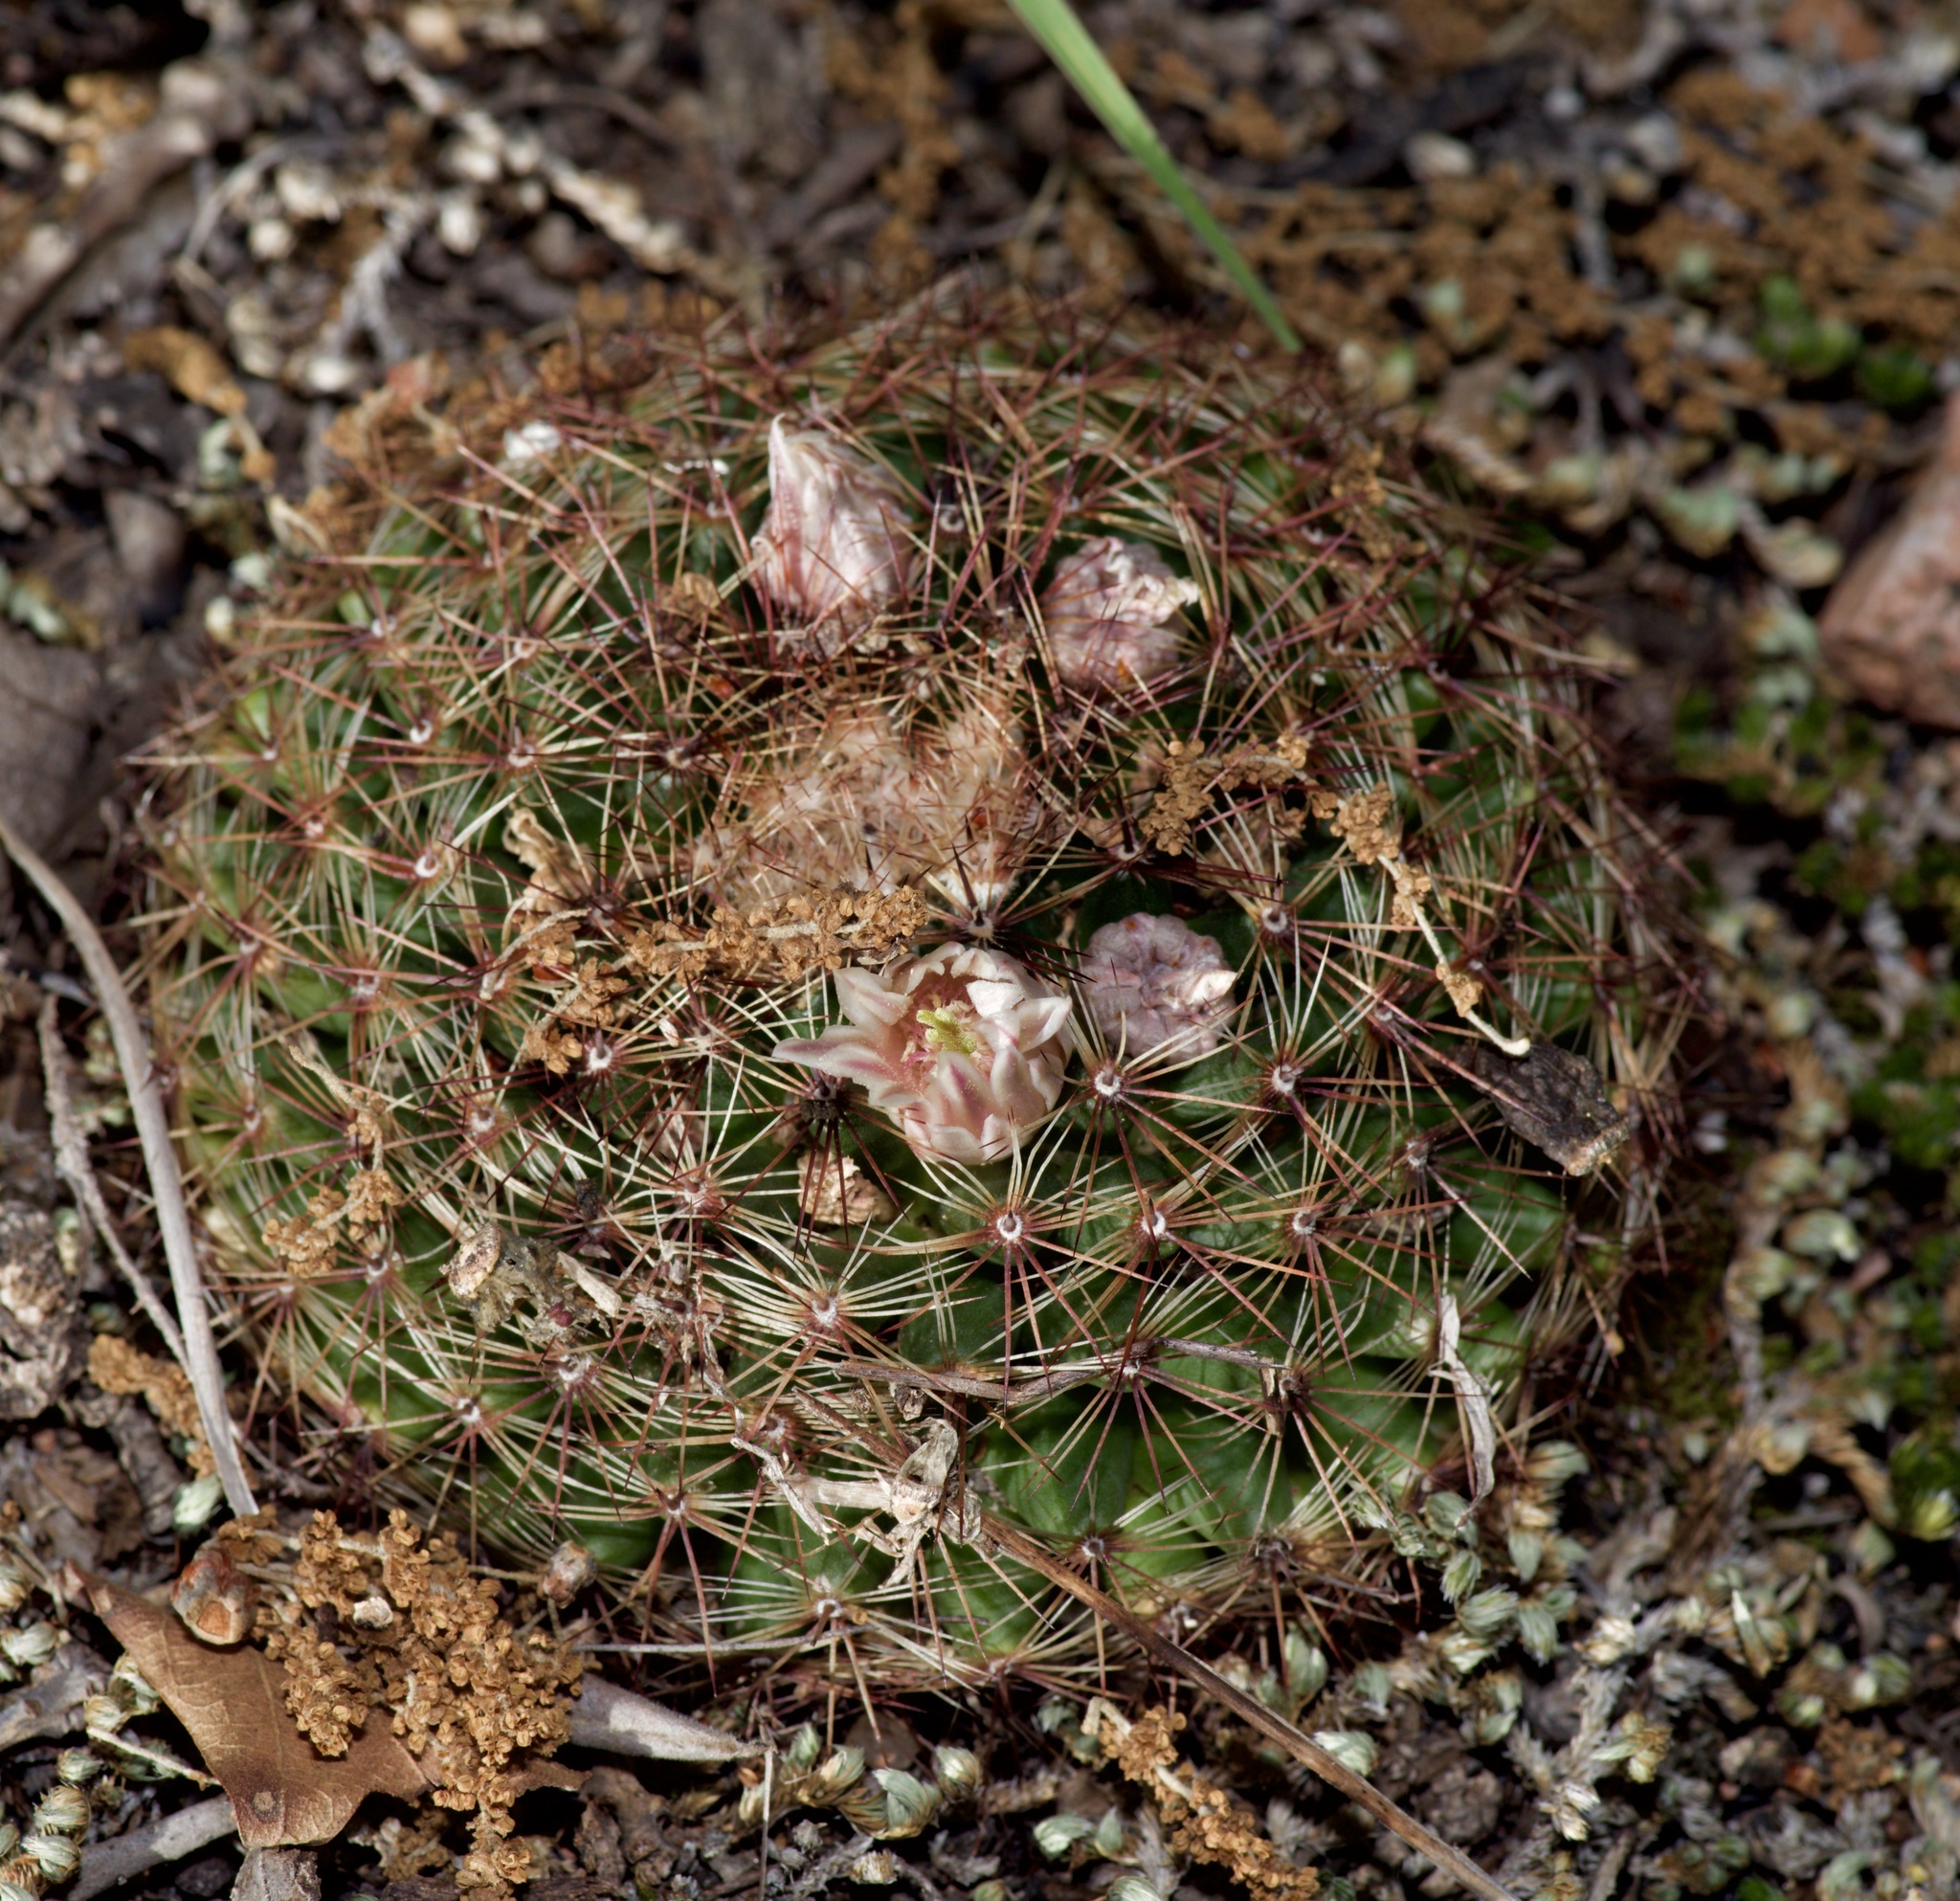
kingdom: Plantae
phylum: Tracheophyta
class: Magnoliopsida
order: Caryophyllales
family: Cactaceae
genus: Mammillaria
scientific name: Mammillaria heyderi
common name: Little nipple cactus
